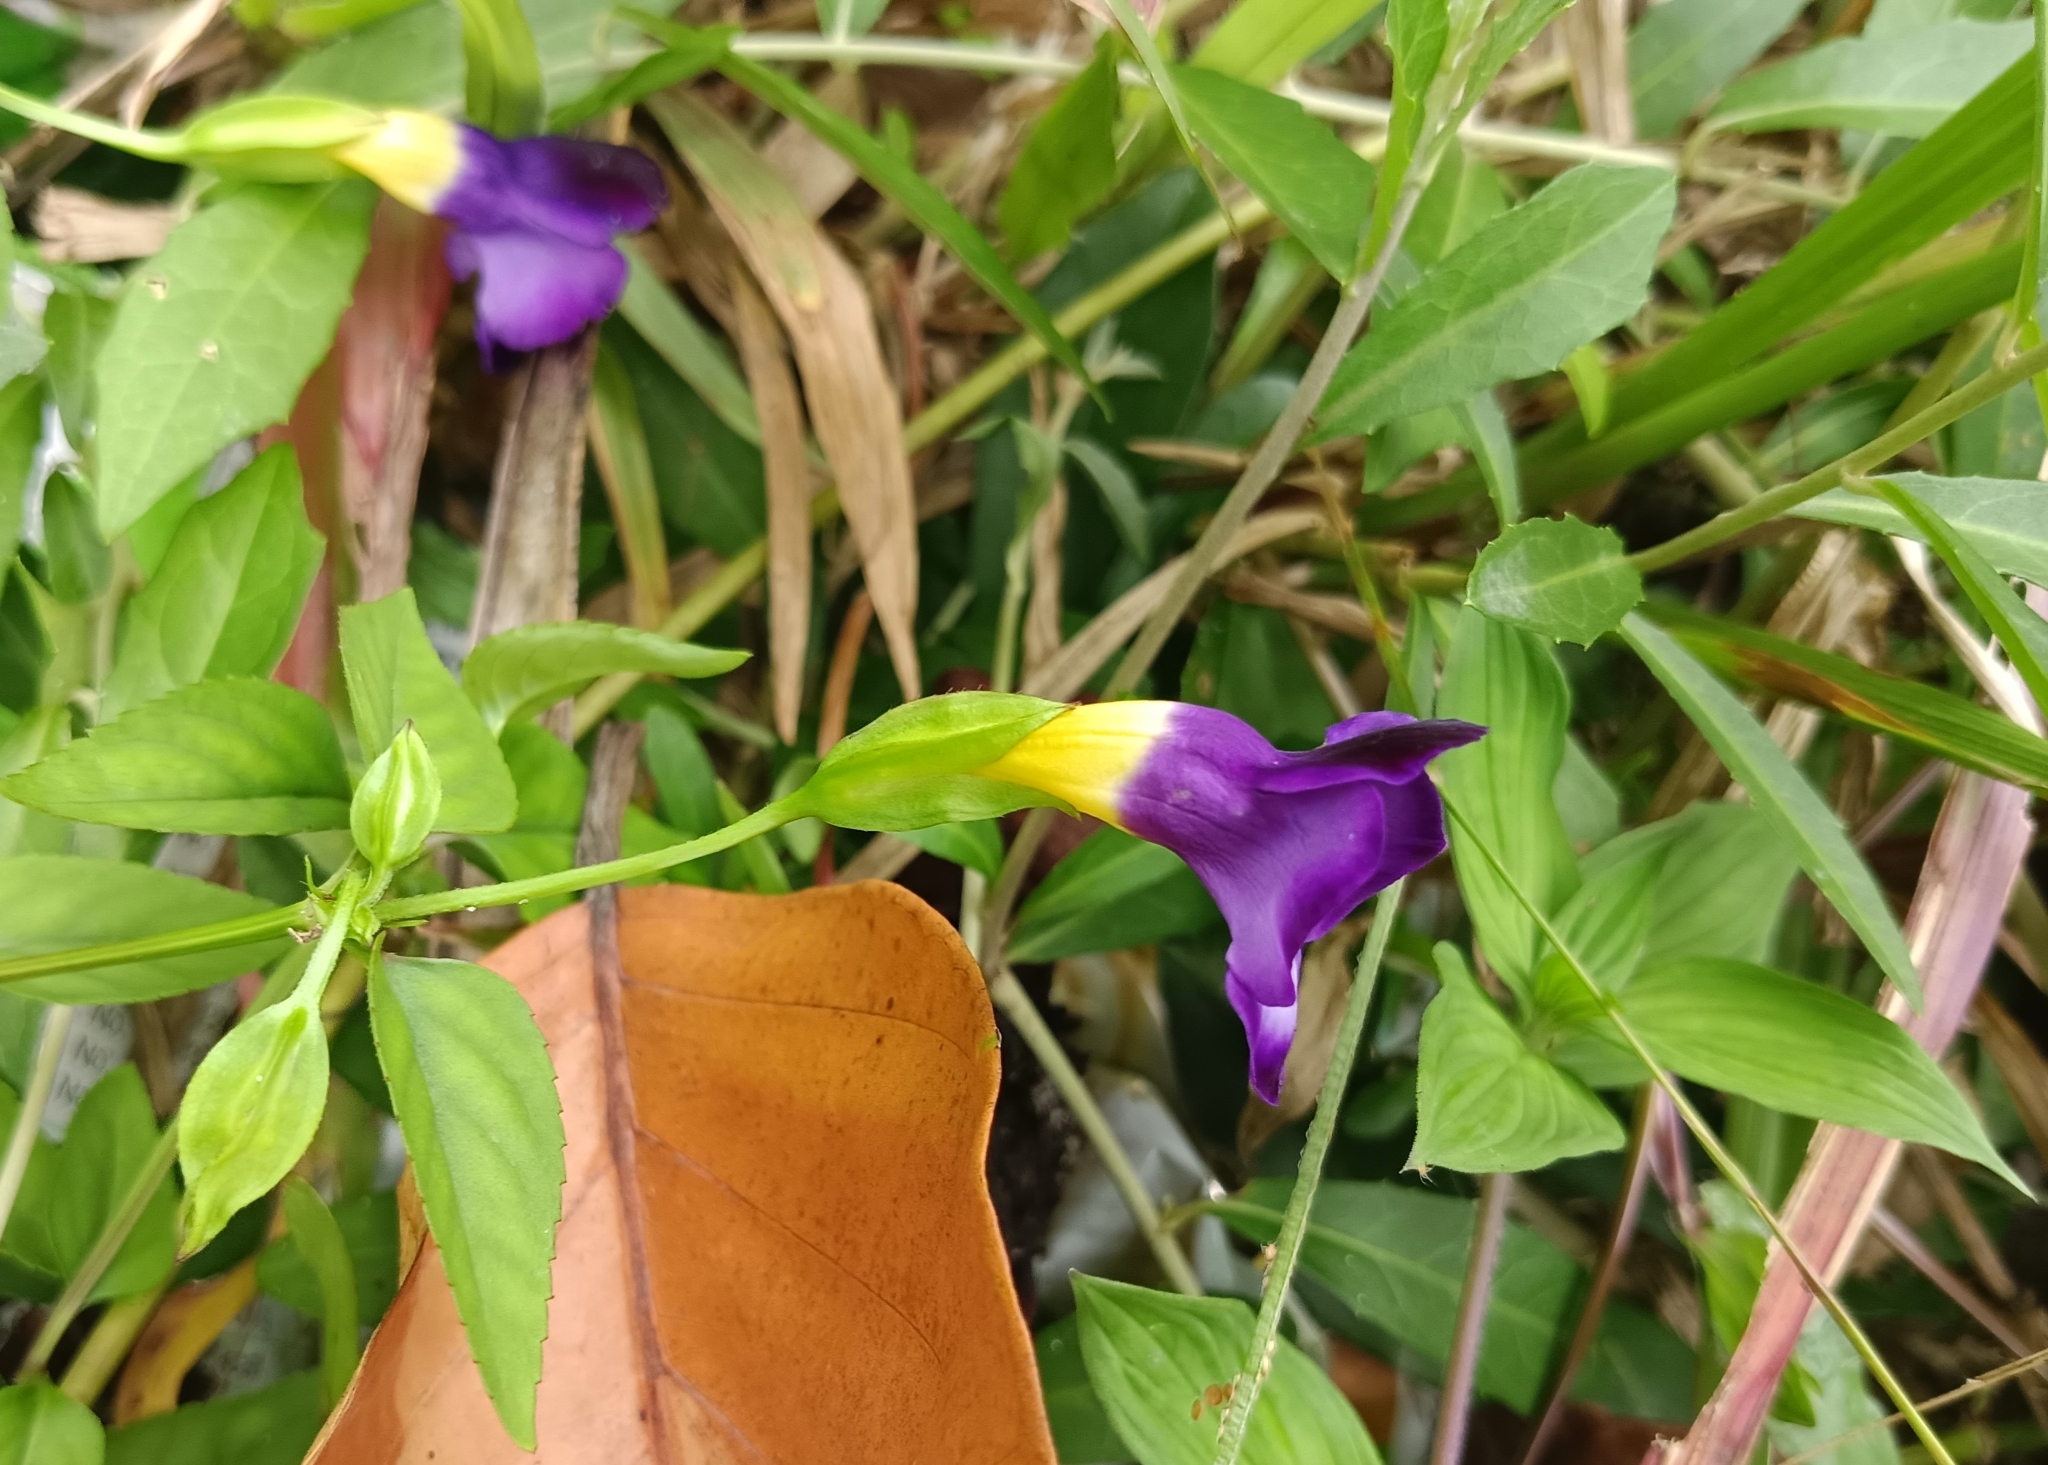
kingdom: Plantae
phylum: Tracheophyta
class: Magnoliopsida
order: Lamiales
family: Linderniaceae
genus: Torenia
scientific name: Torenia leucosiphon
